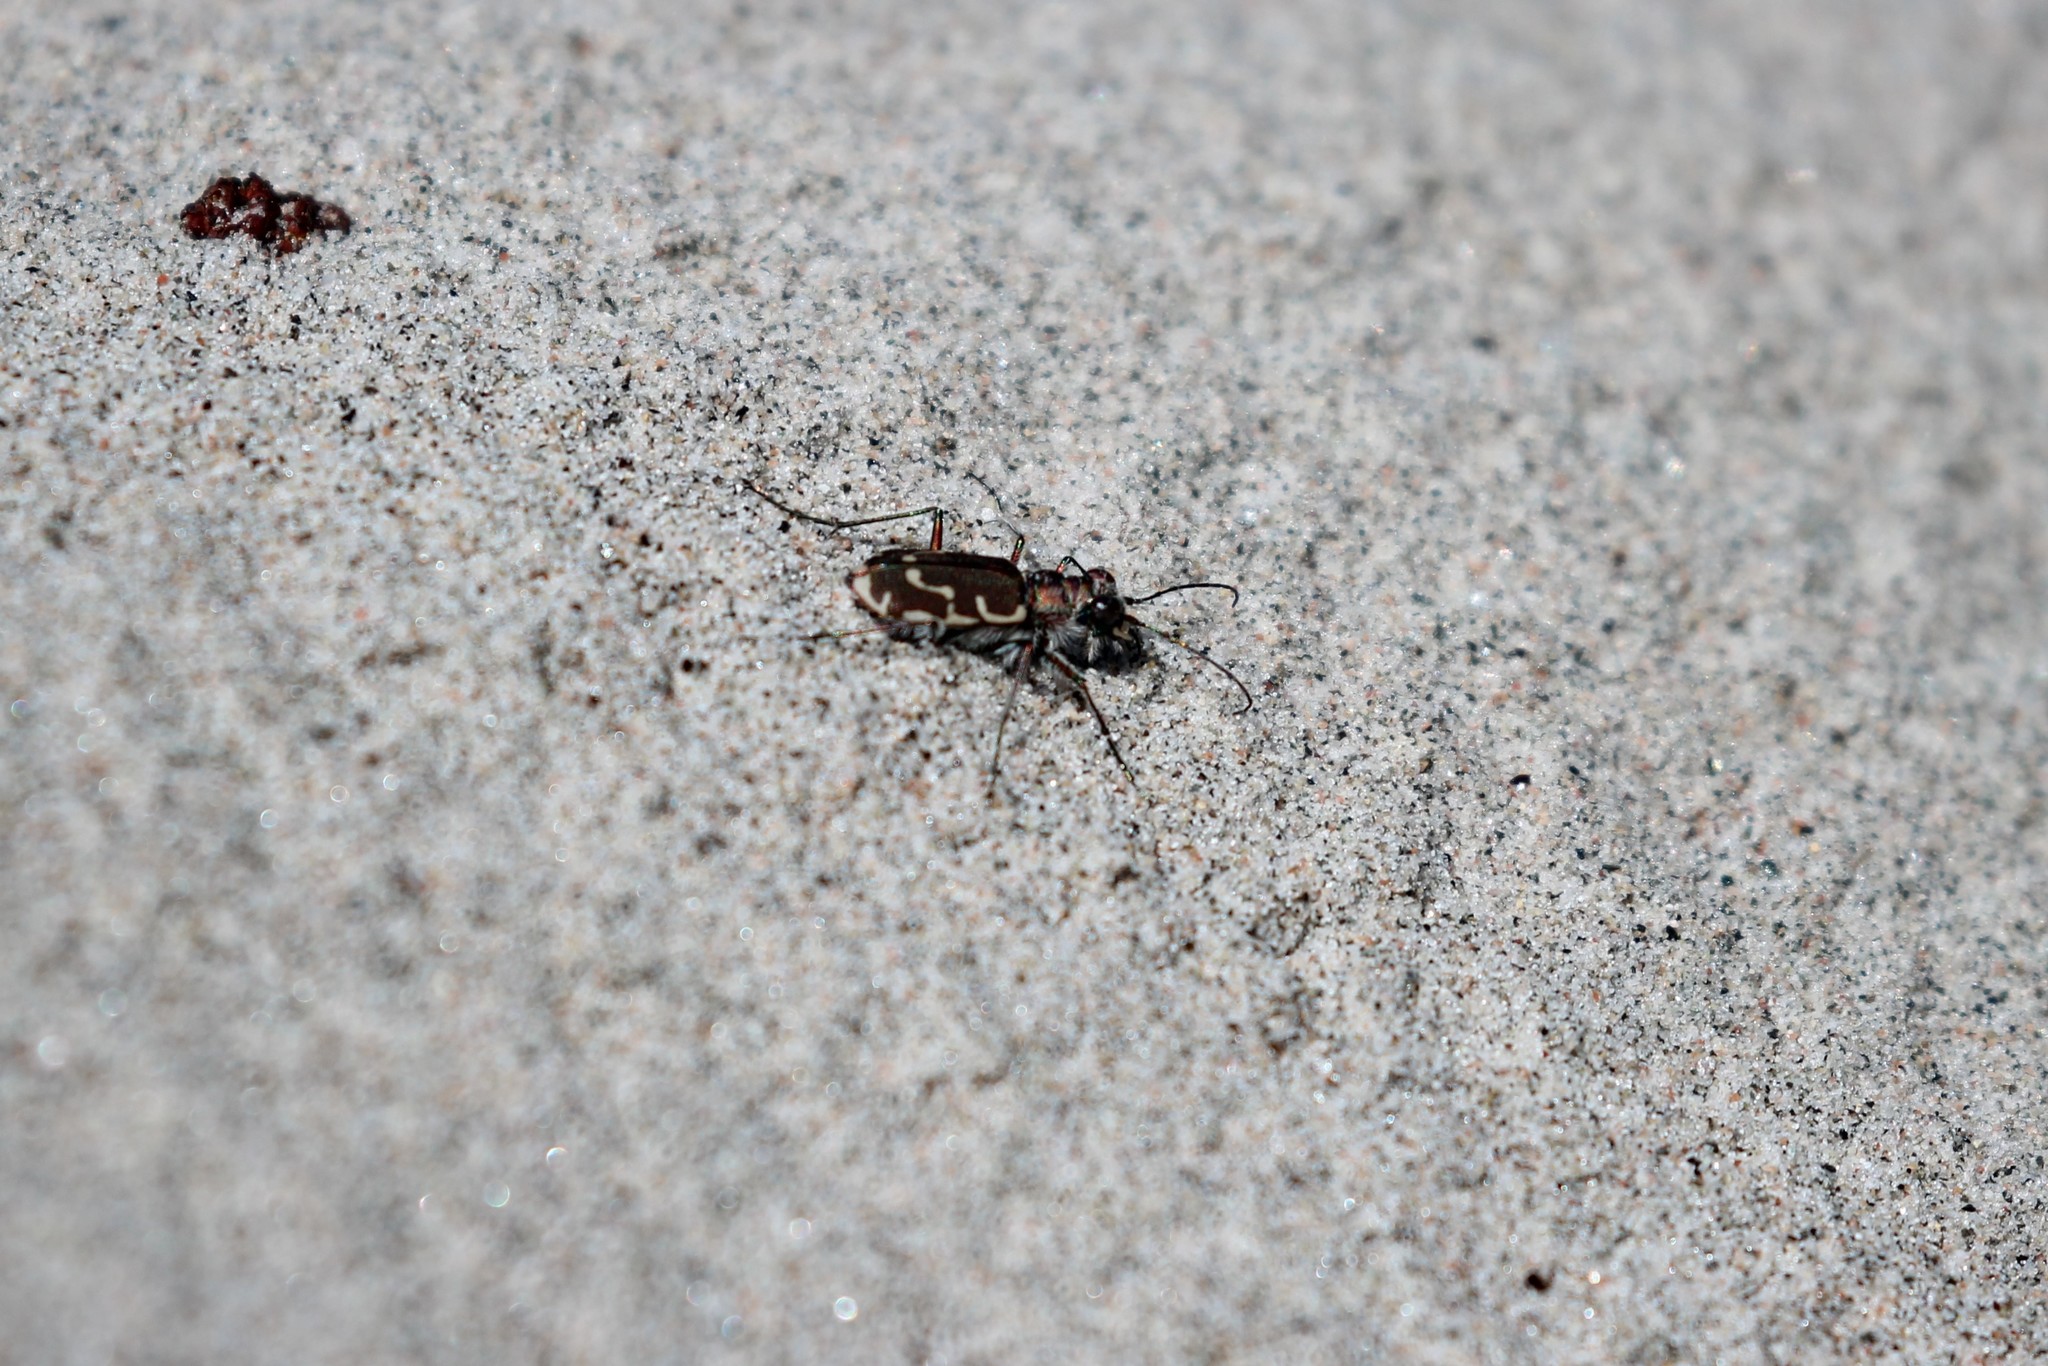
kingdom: Animalia
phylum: Arthropoda
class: Insecta
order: Coleoptera
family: Carabidae
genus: Cicindela
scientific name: Cicindela repanda
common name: Bronzed tiger beetle
